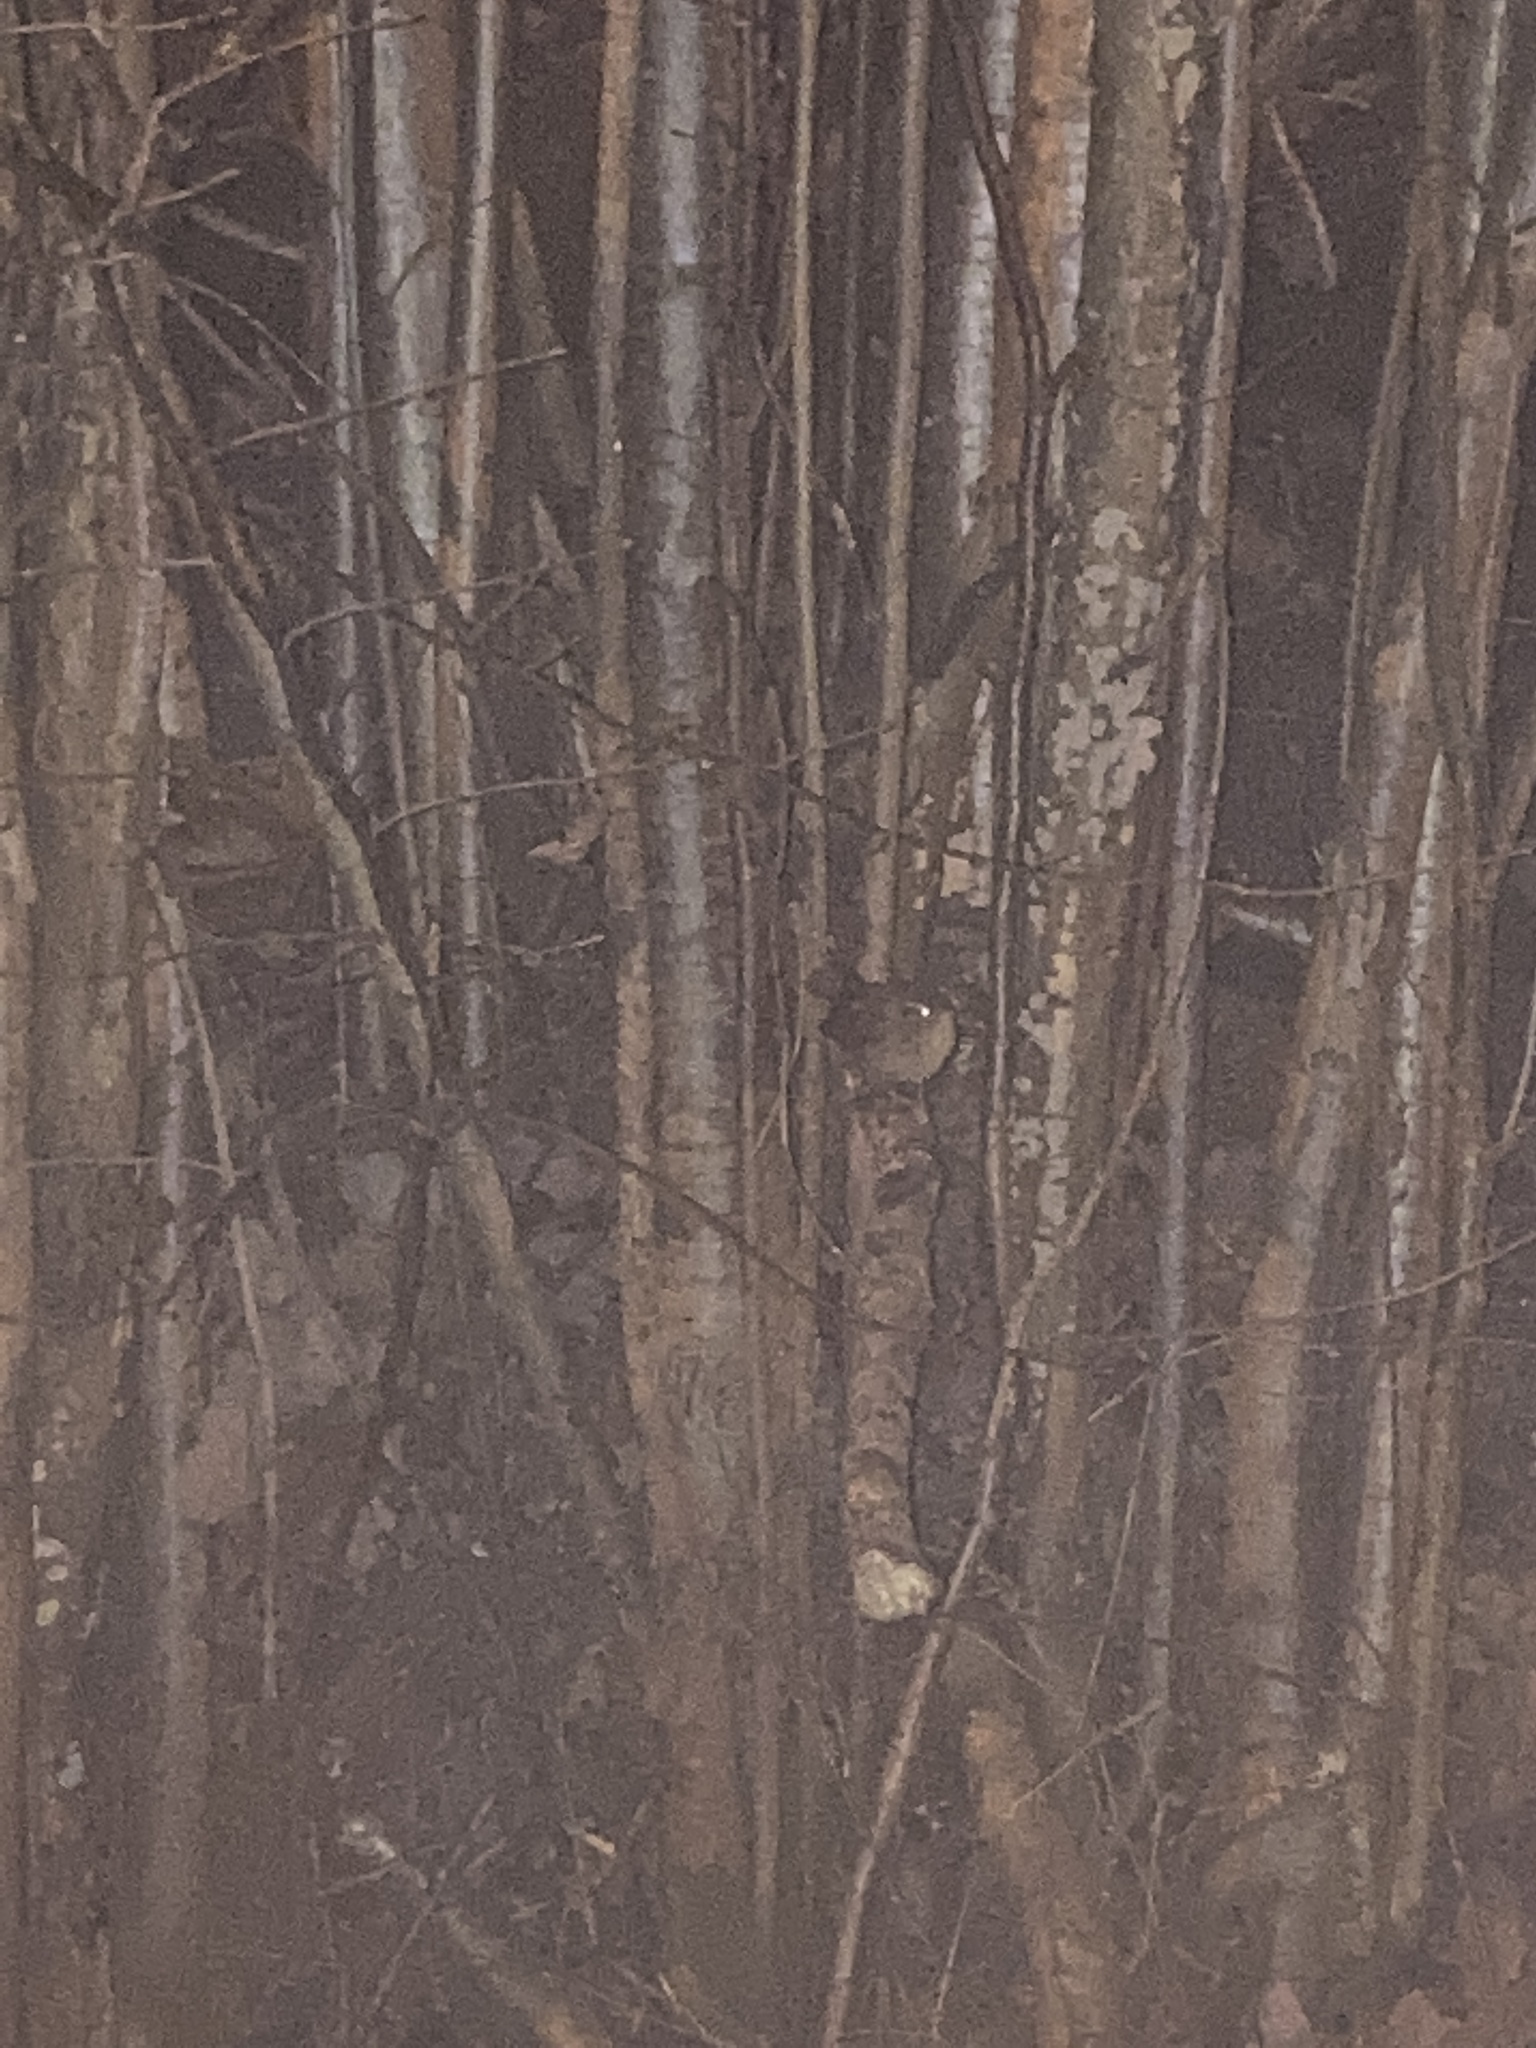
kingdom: Animalia
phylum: Chordata
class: Aves
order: Passeriformes
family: Troglodytidae
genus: Troglodytes
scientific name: Troglodytes troglodytes
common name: Eurasian wren
